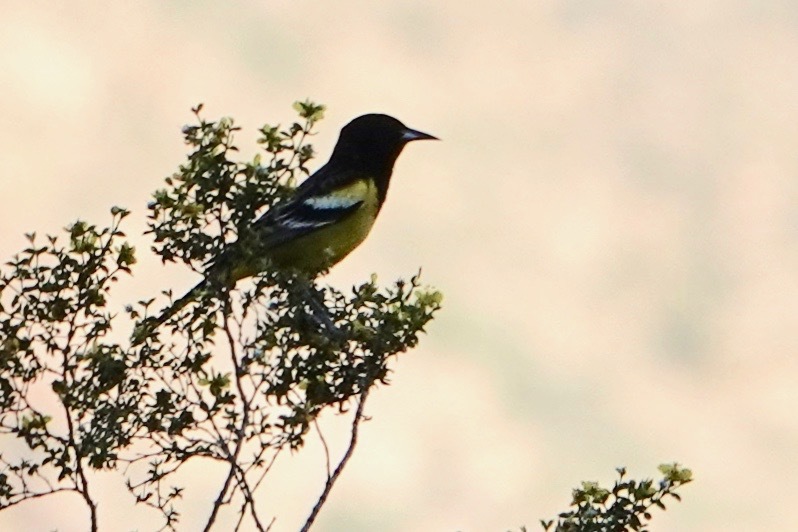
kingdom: Animalia
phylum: Chordata
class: Aves
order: Passeriformes
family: Icteridae
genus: Icterus
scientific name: Icterus parisorum
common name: Scott's oriole
